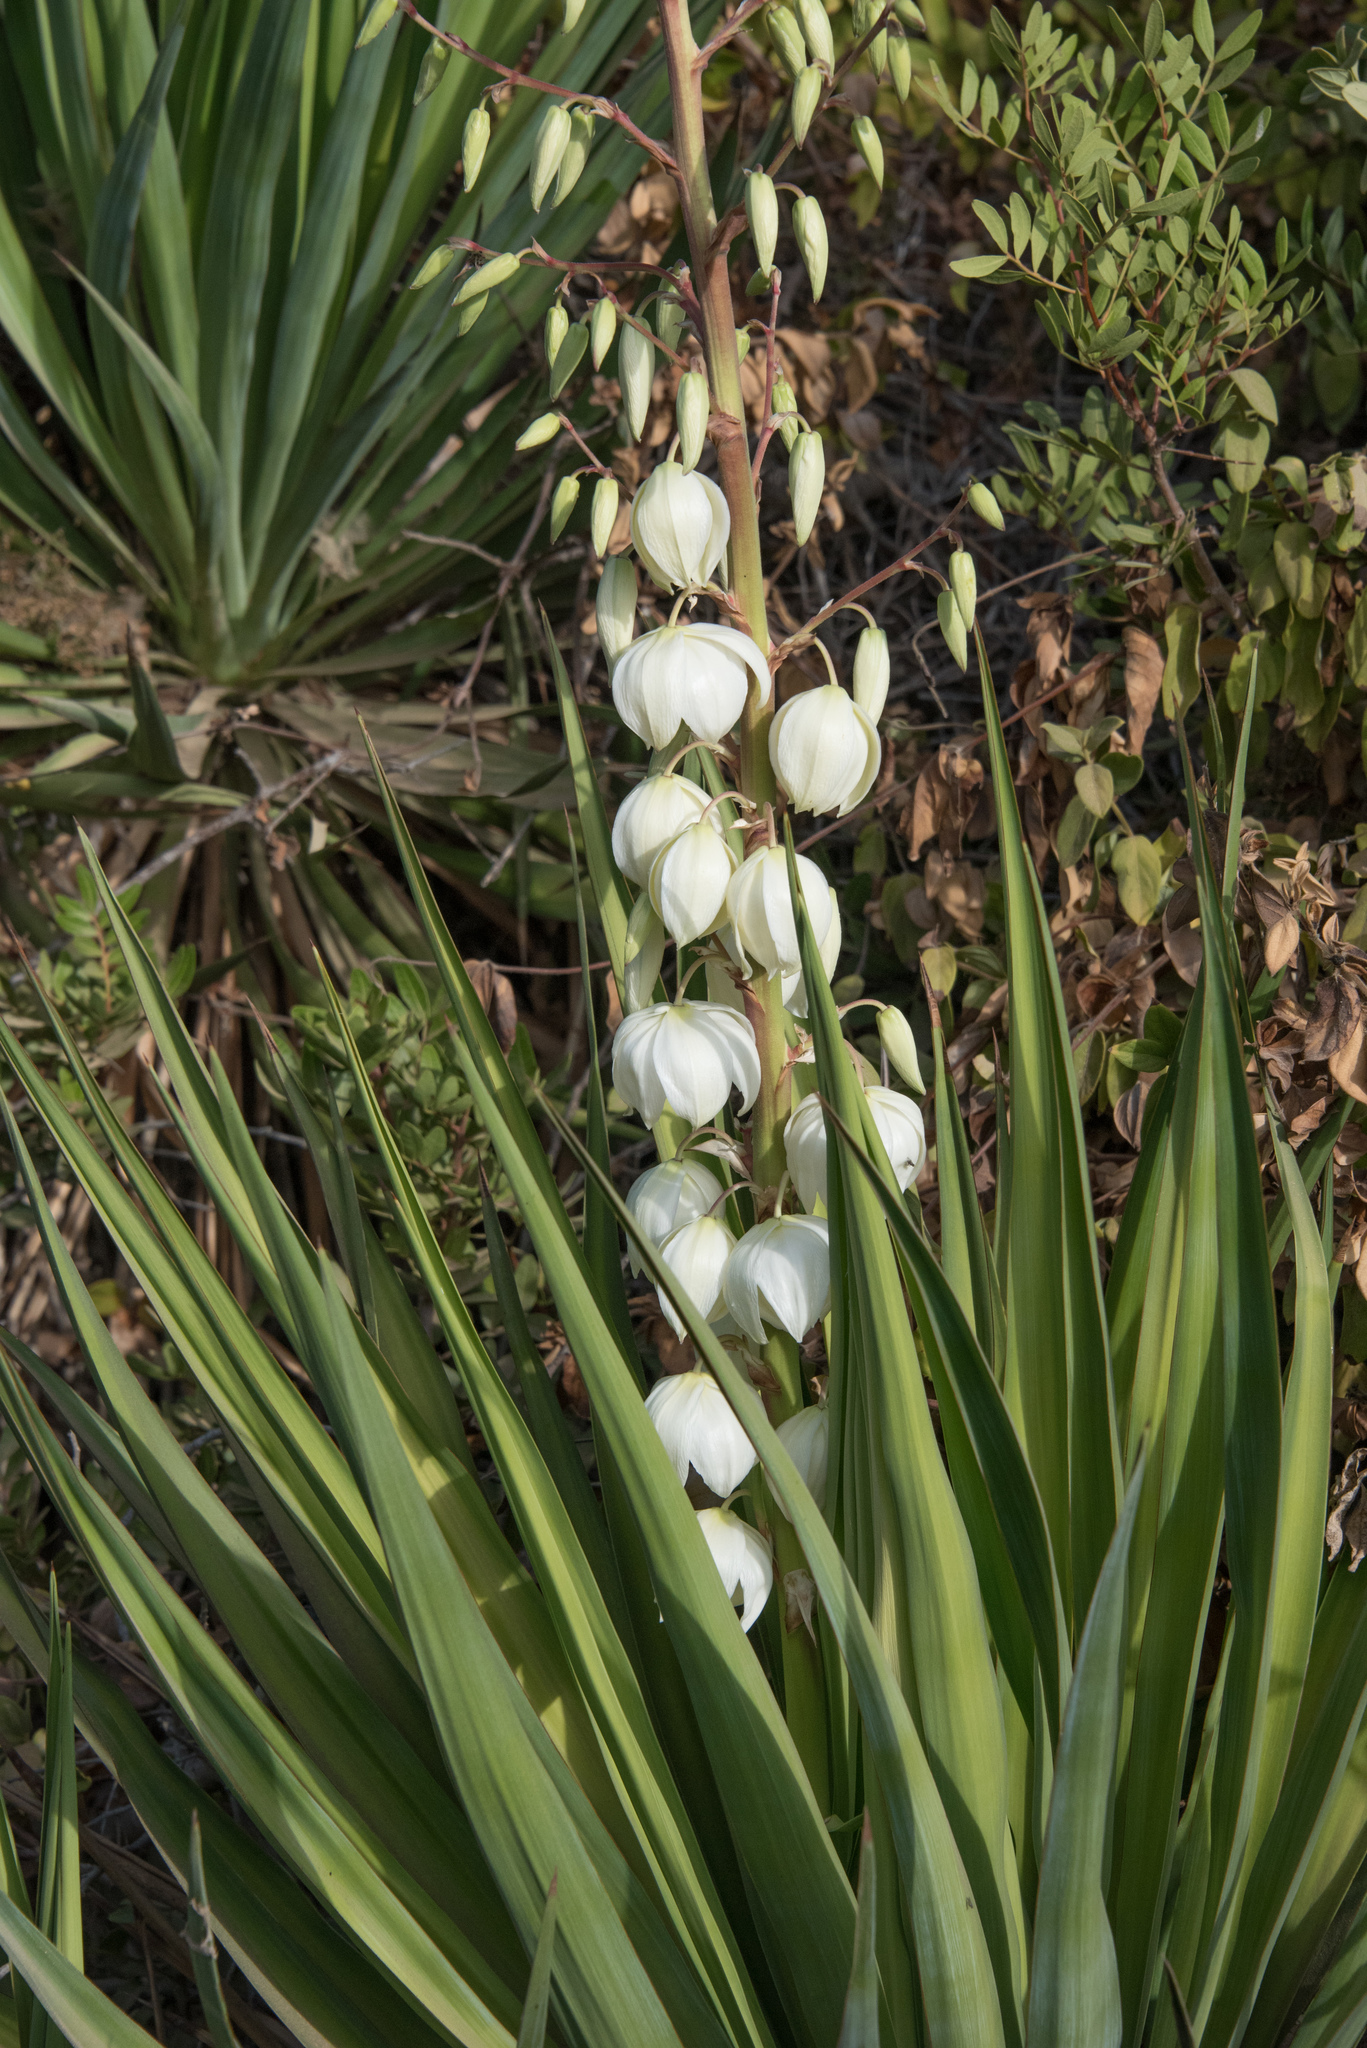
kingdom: Plantae
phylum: Tracheophyta
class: Liliopsida
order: Asparagales
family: Asparagaceae
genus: Yucca
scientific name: Yucca gloriosa
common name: Spanish-dagger
